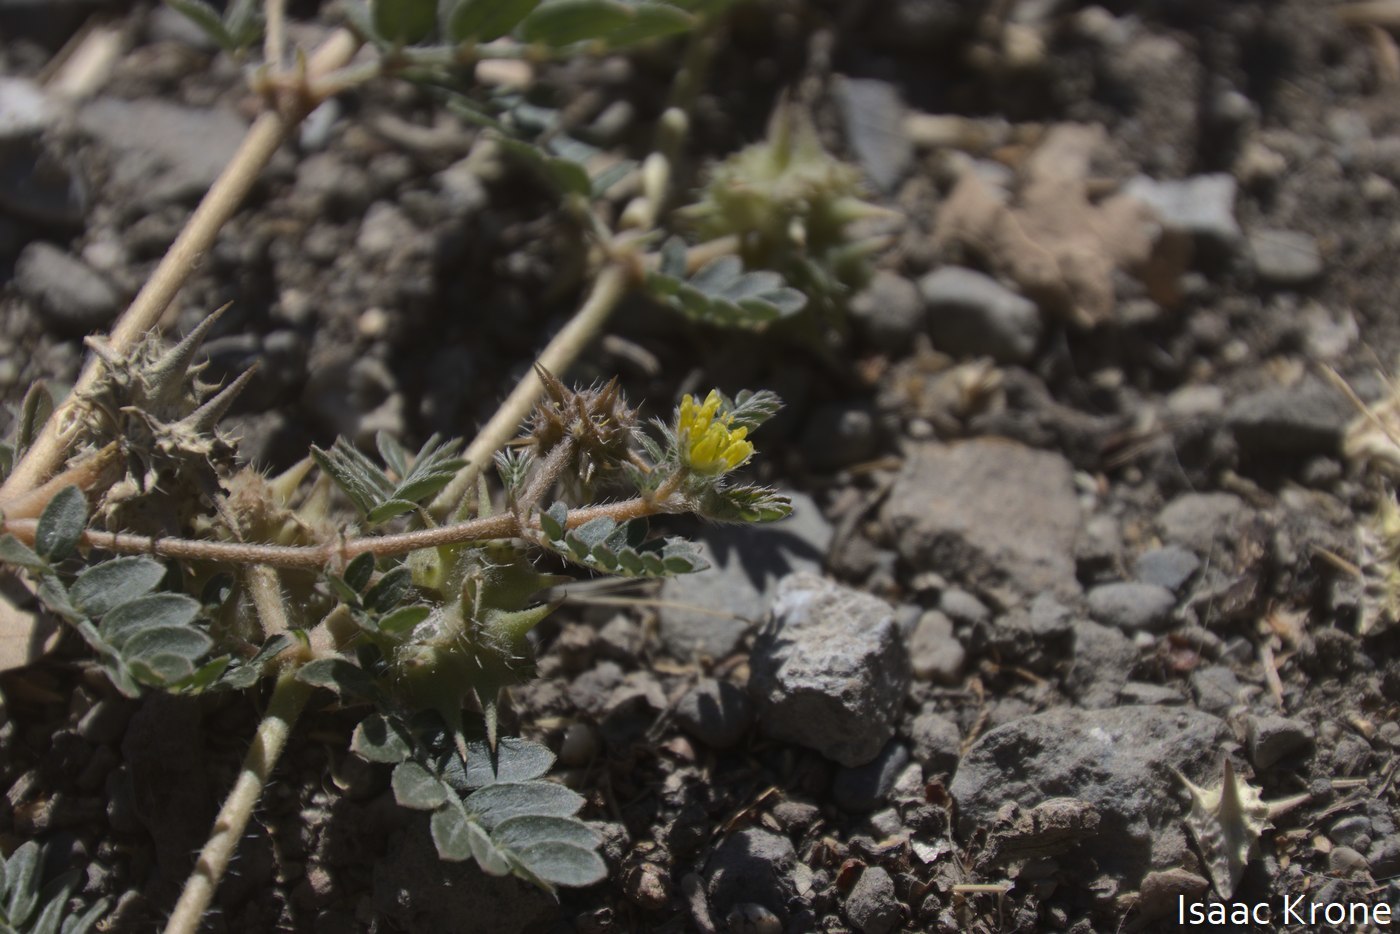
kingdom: Plantae
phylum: Tracheophyta
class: Magnoliopsida
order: Zygophyllales
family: Zygophyllaceae
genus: Tribulus
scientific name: Tribulus terrestris
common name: Puncturevine
